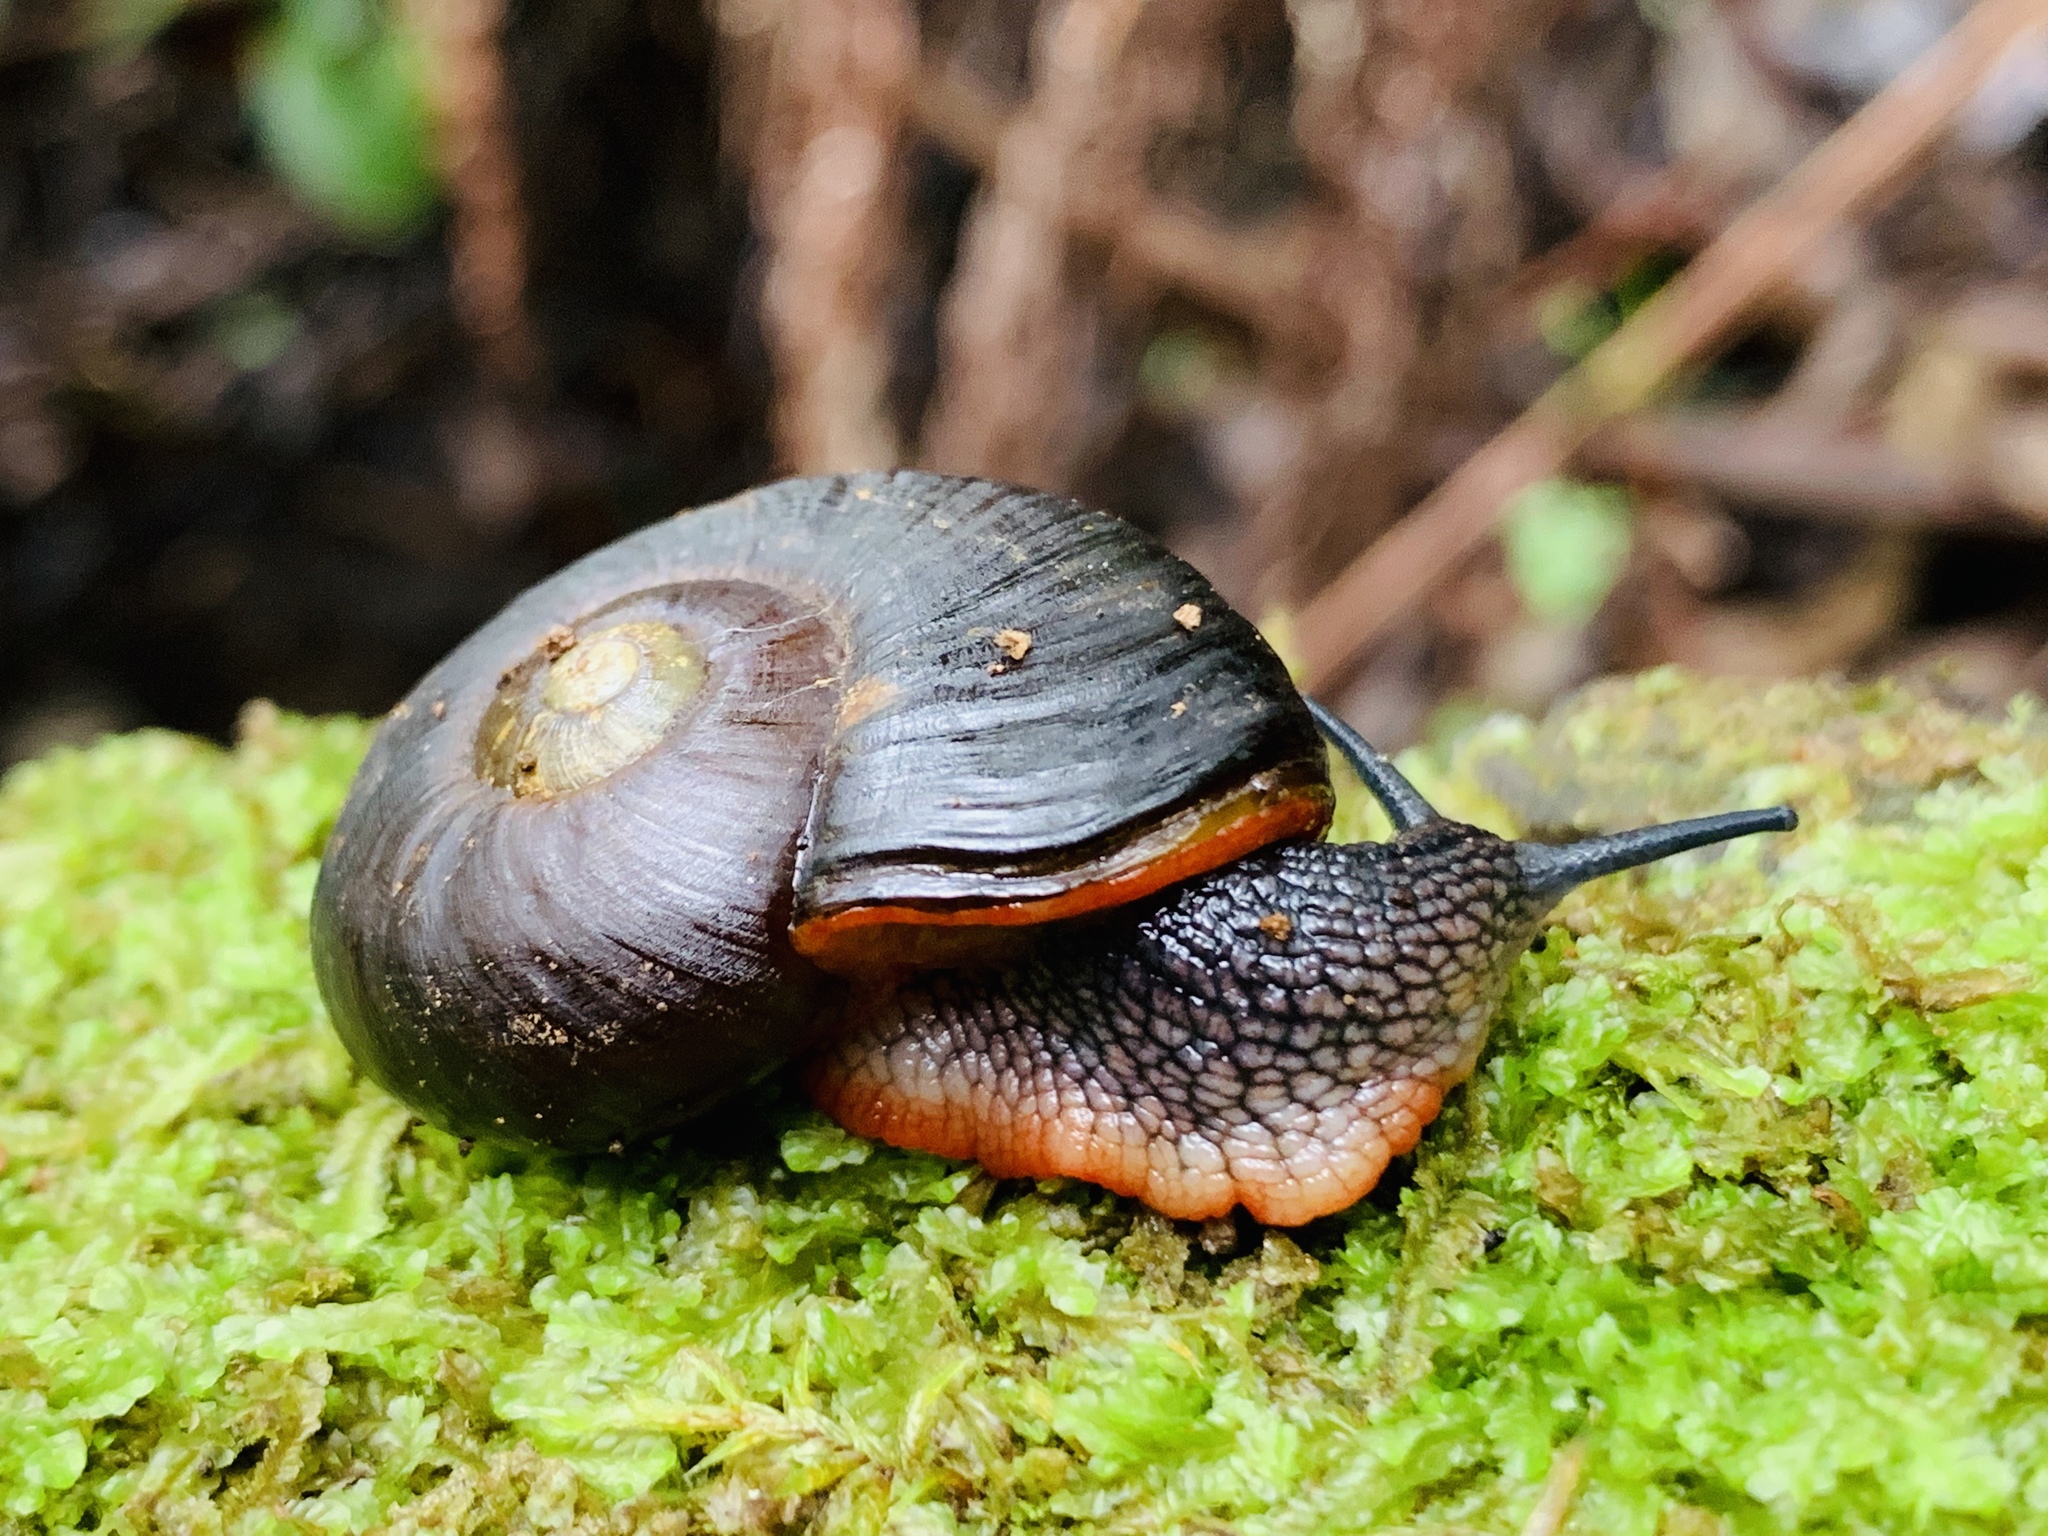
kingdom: Animalia
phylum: Mollusca
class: Gastropoda
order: Stylommatophora
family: Rhytididae
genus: Victaphanta
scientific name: Victaphanta atramentaria
